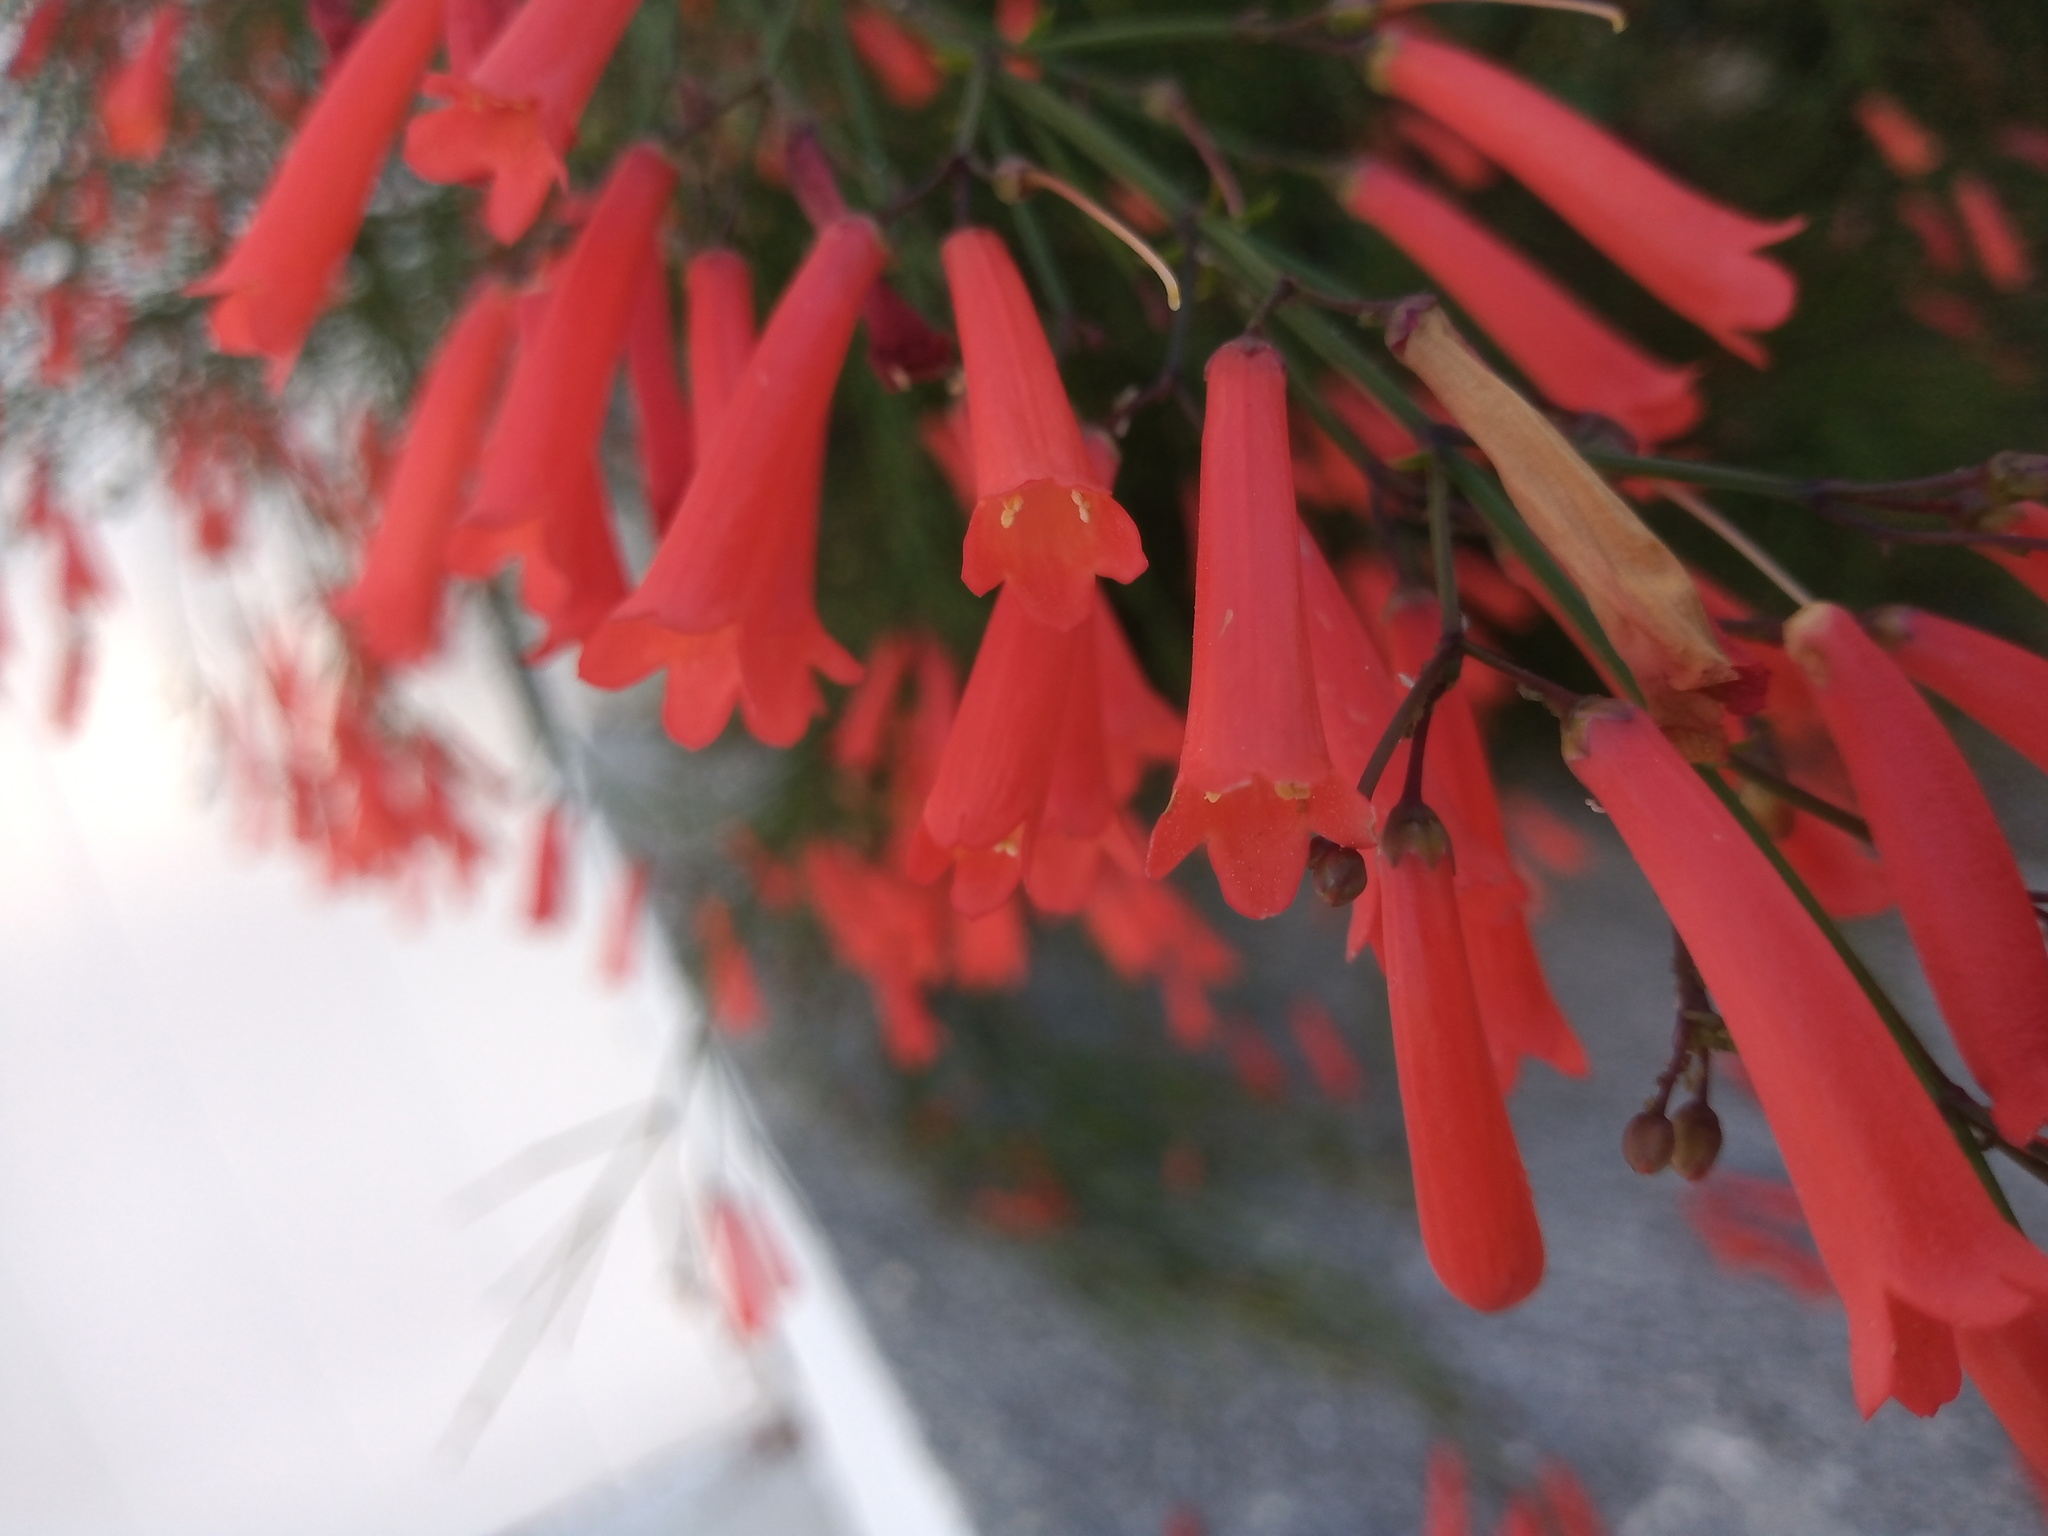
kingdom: Plantae
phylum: Tracheophyta
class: Magnoliopsida
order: Lamiales
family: Plantaginaceae
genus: Russelia
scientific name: Russelia equisetiformis
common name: Fountainbush
